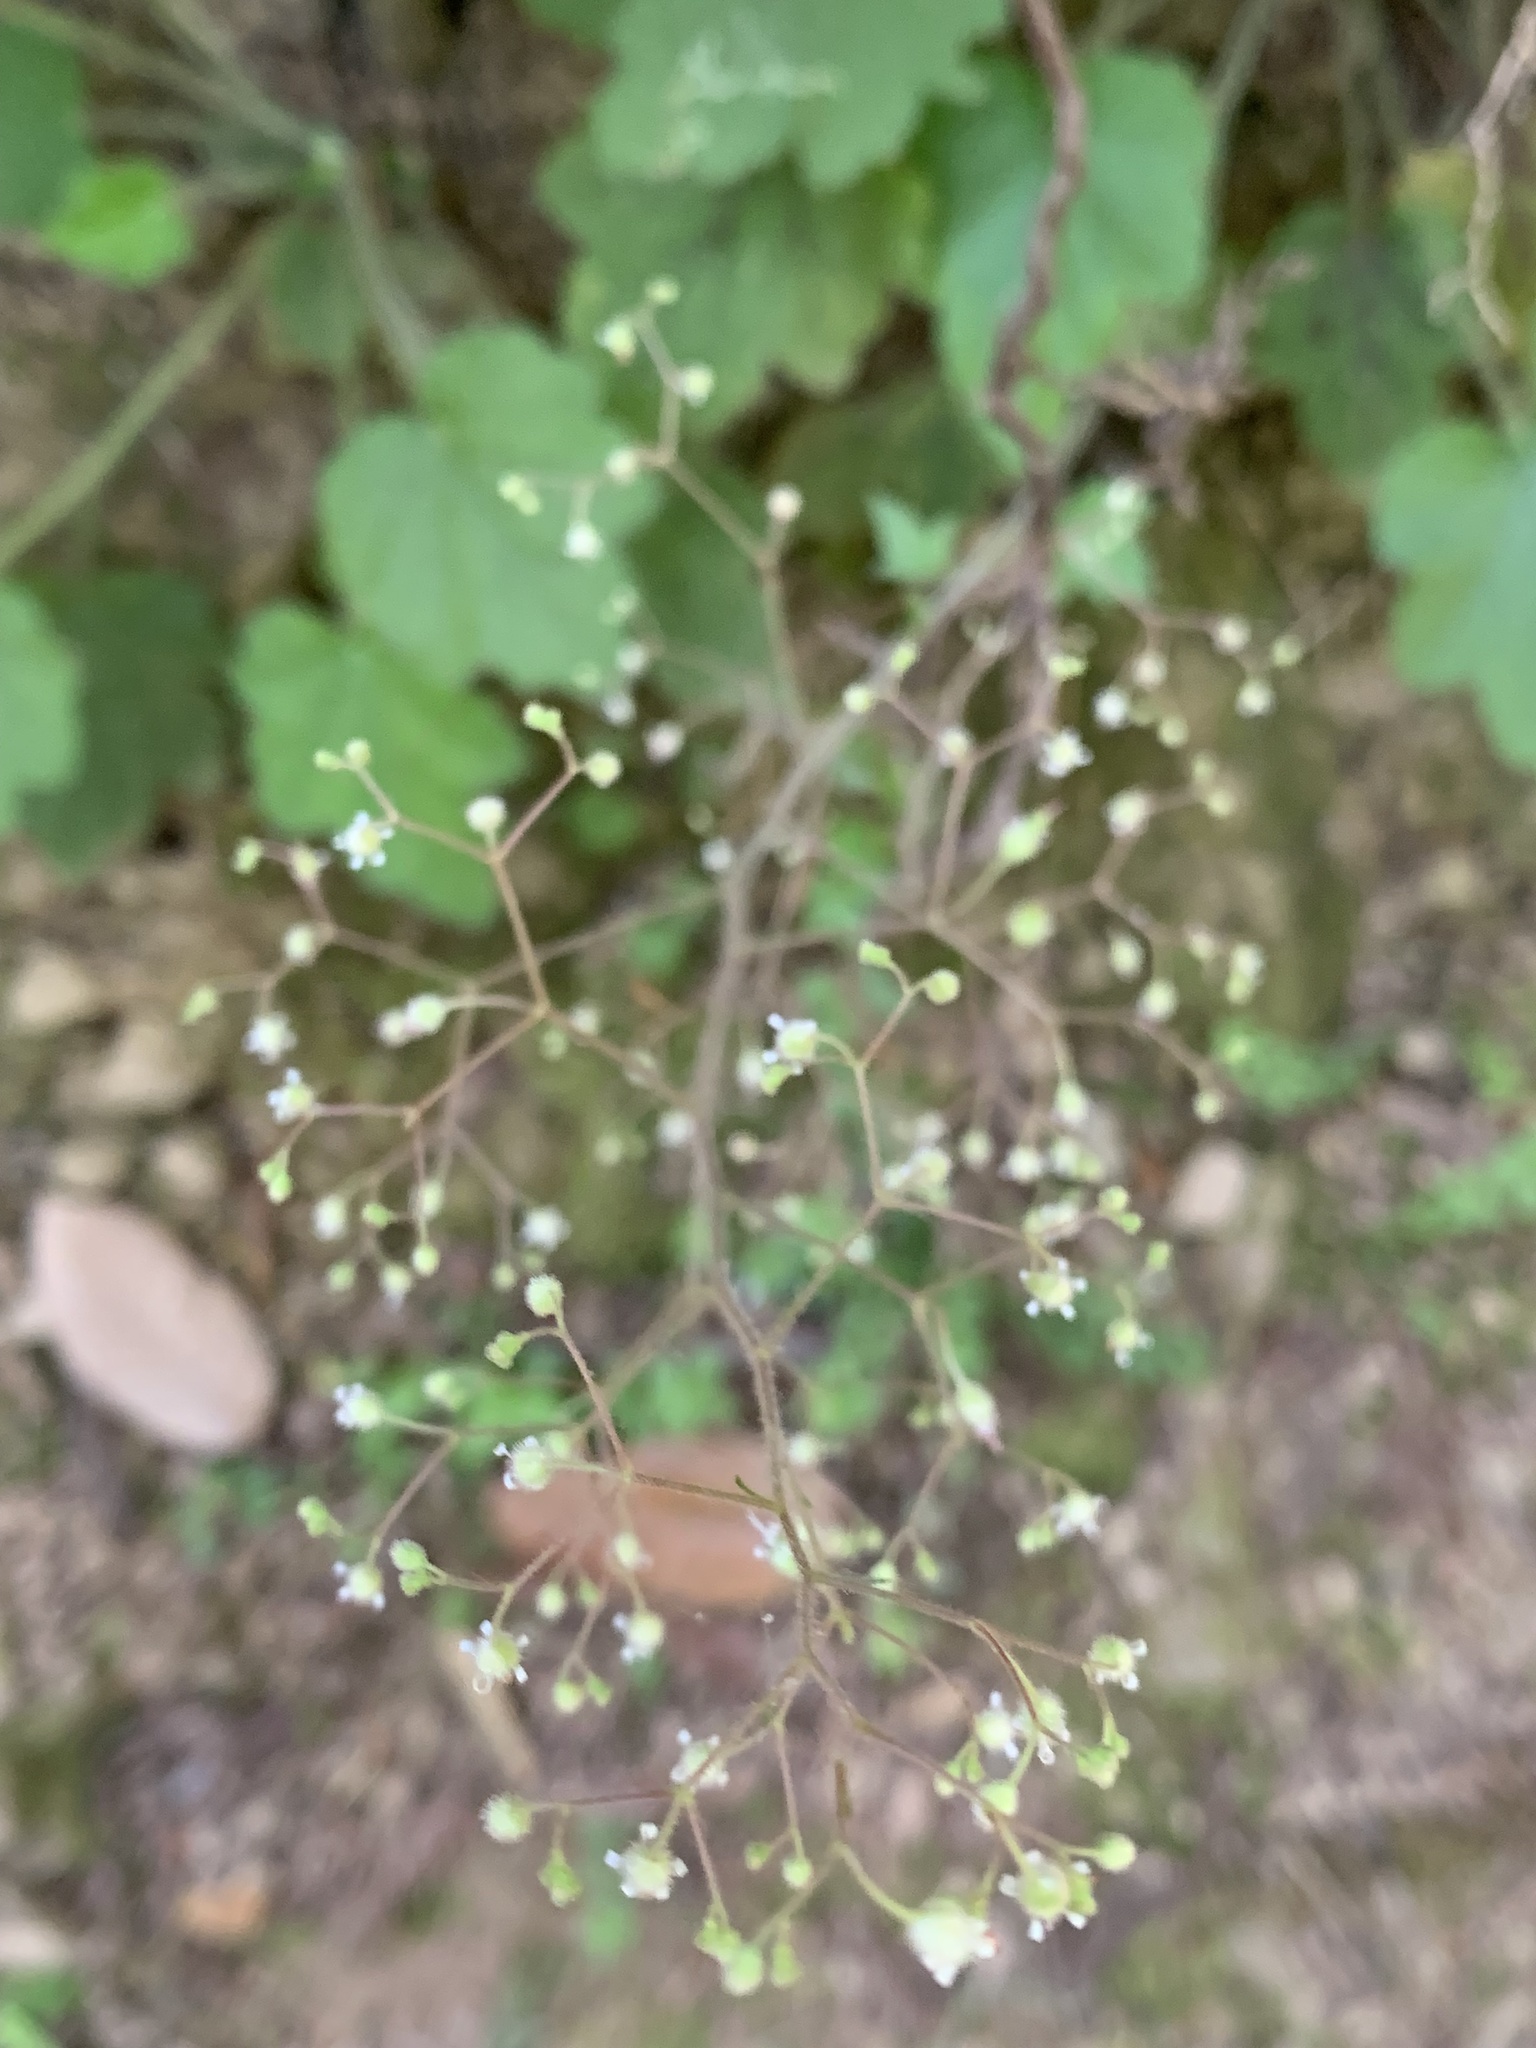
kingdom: Plantae
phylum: Tracheophyta
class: Magnoliopsida
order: Saxifragales
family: Saxifragaceae
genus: Heuchera
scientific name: Heuchera micrantha
